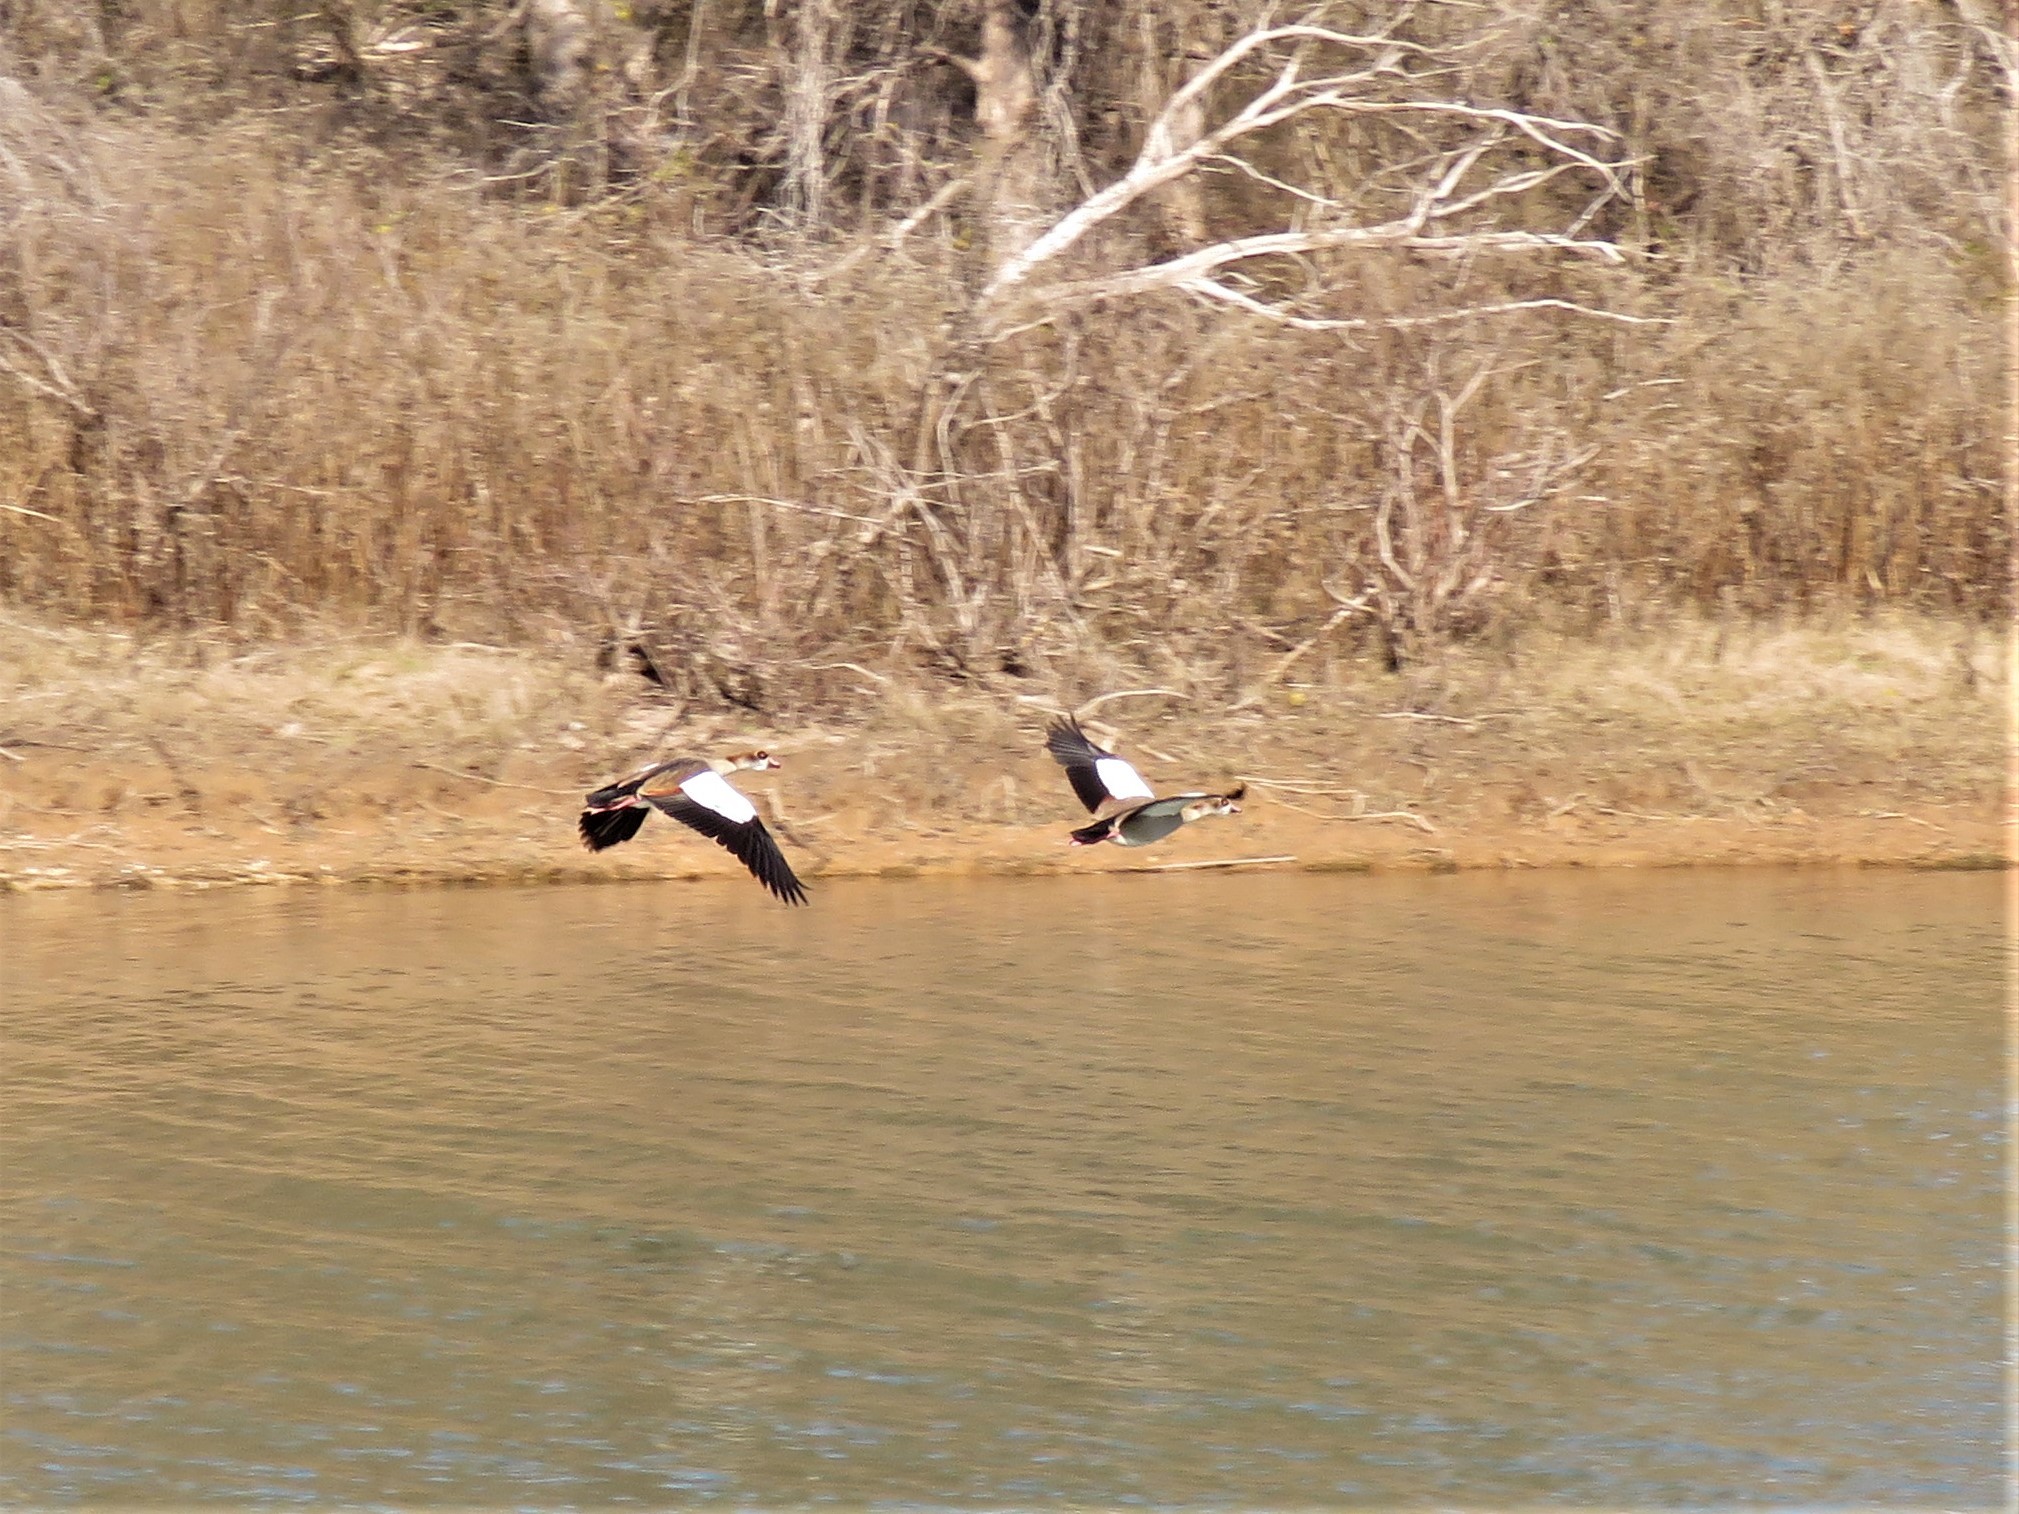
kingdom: Animalia
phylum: Chordata
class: Aves
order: Anseriformes
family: Anatidae
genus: Alopochen
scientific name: Alopochen aegyptiaca
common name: Egyptian goose
